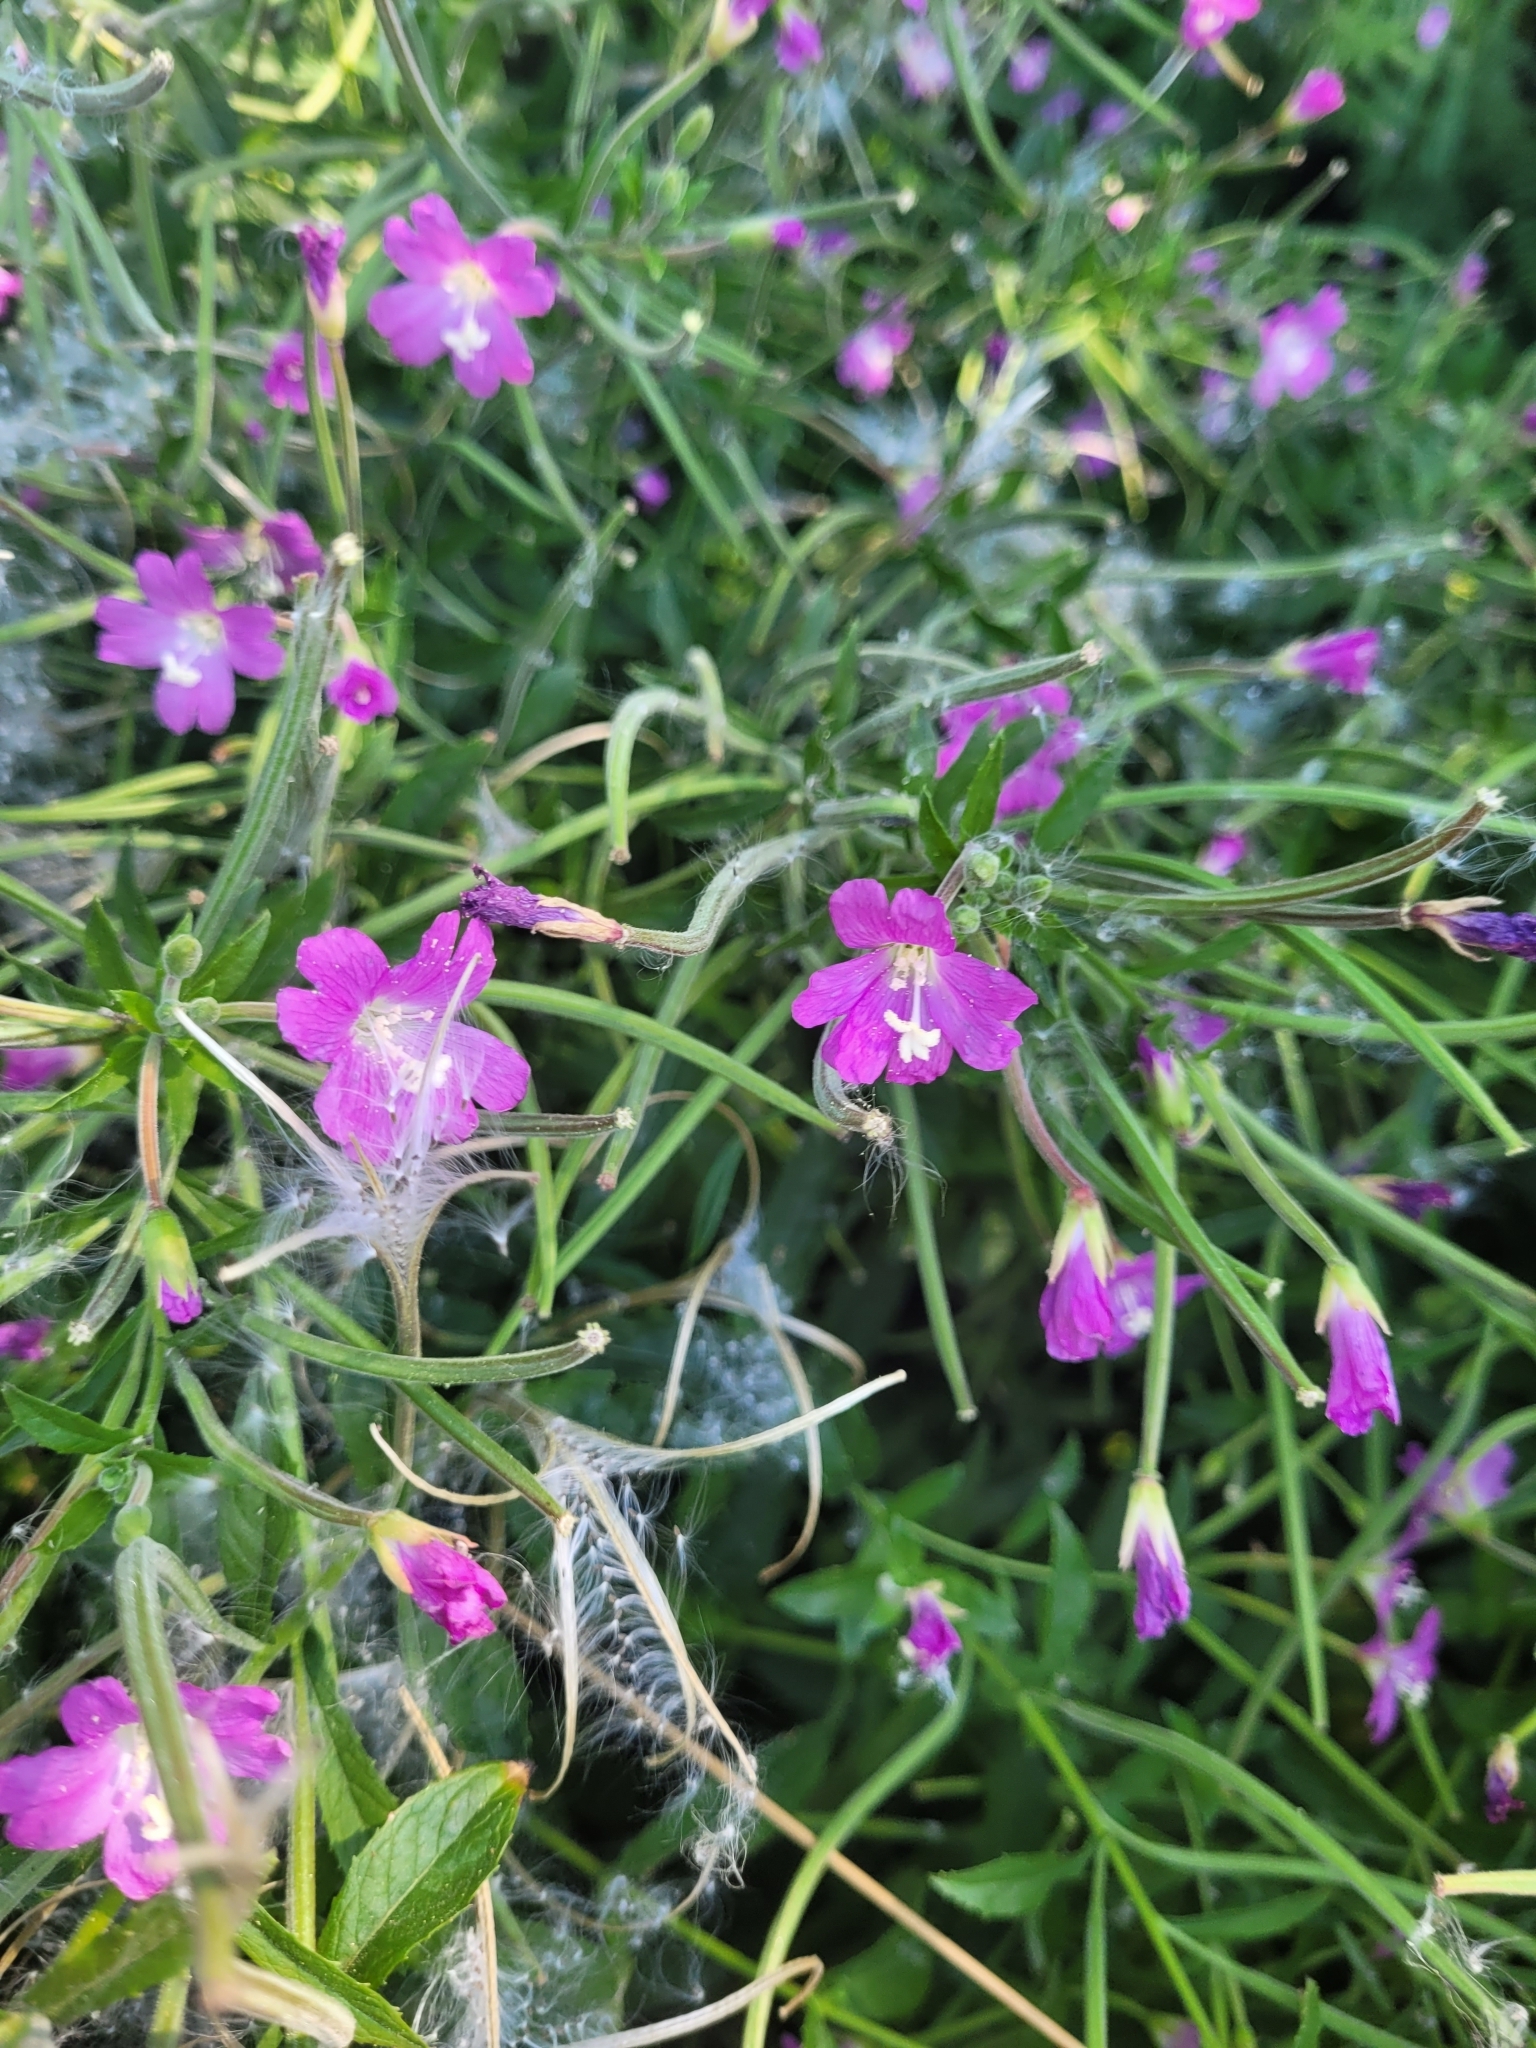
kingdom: Plantae
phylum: Tracheophyta
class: Magnoliopsida
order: Myrtales
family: Onagraceae
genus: Epilobium
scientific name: Epilobium hirsutum
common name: Great willowherb
